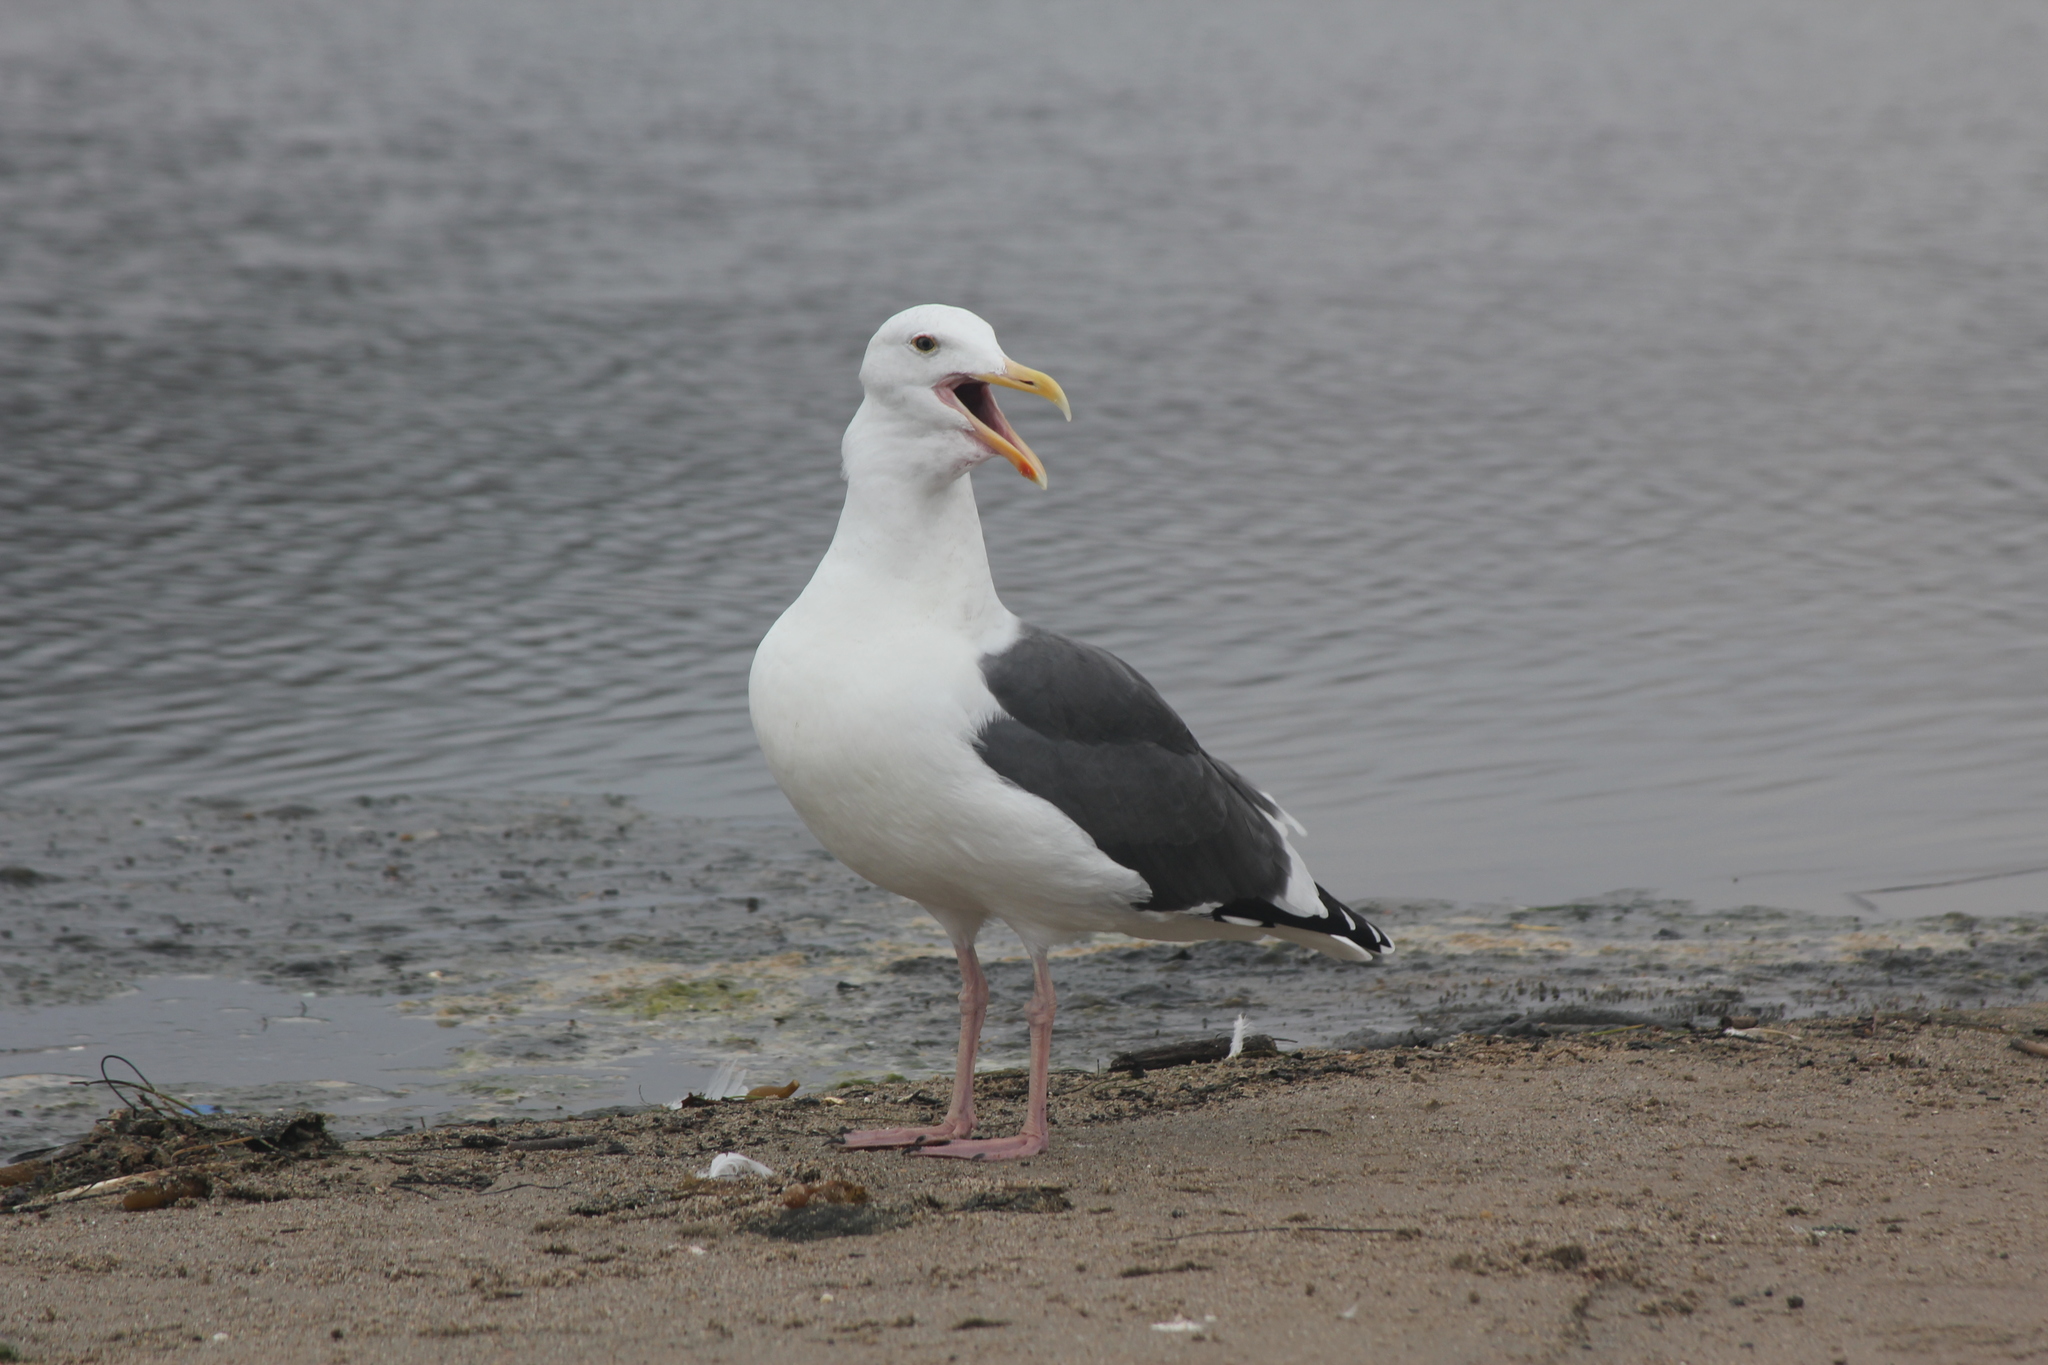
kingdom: Animalia
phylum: Chordata
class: Aves
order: Charadriiformes
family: Laridae
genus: Larus
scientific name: Larus occidentalis
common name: Western gull
